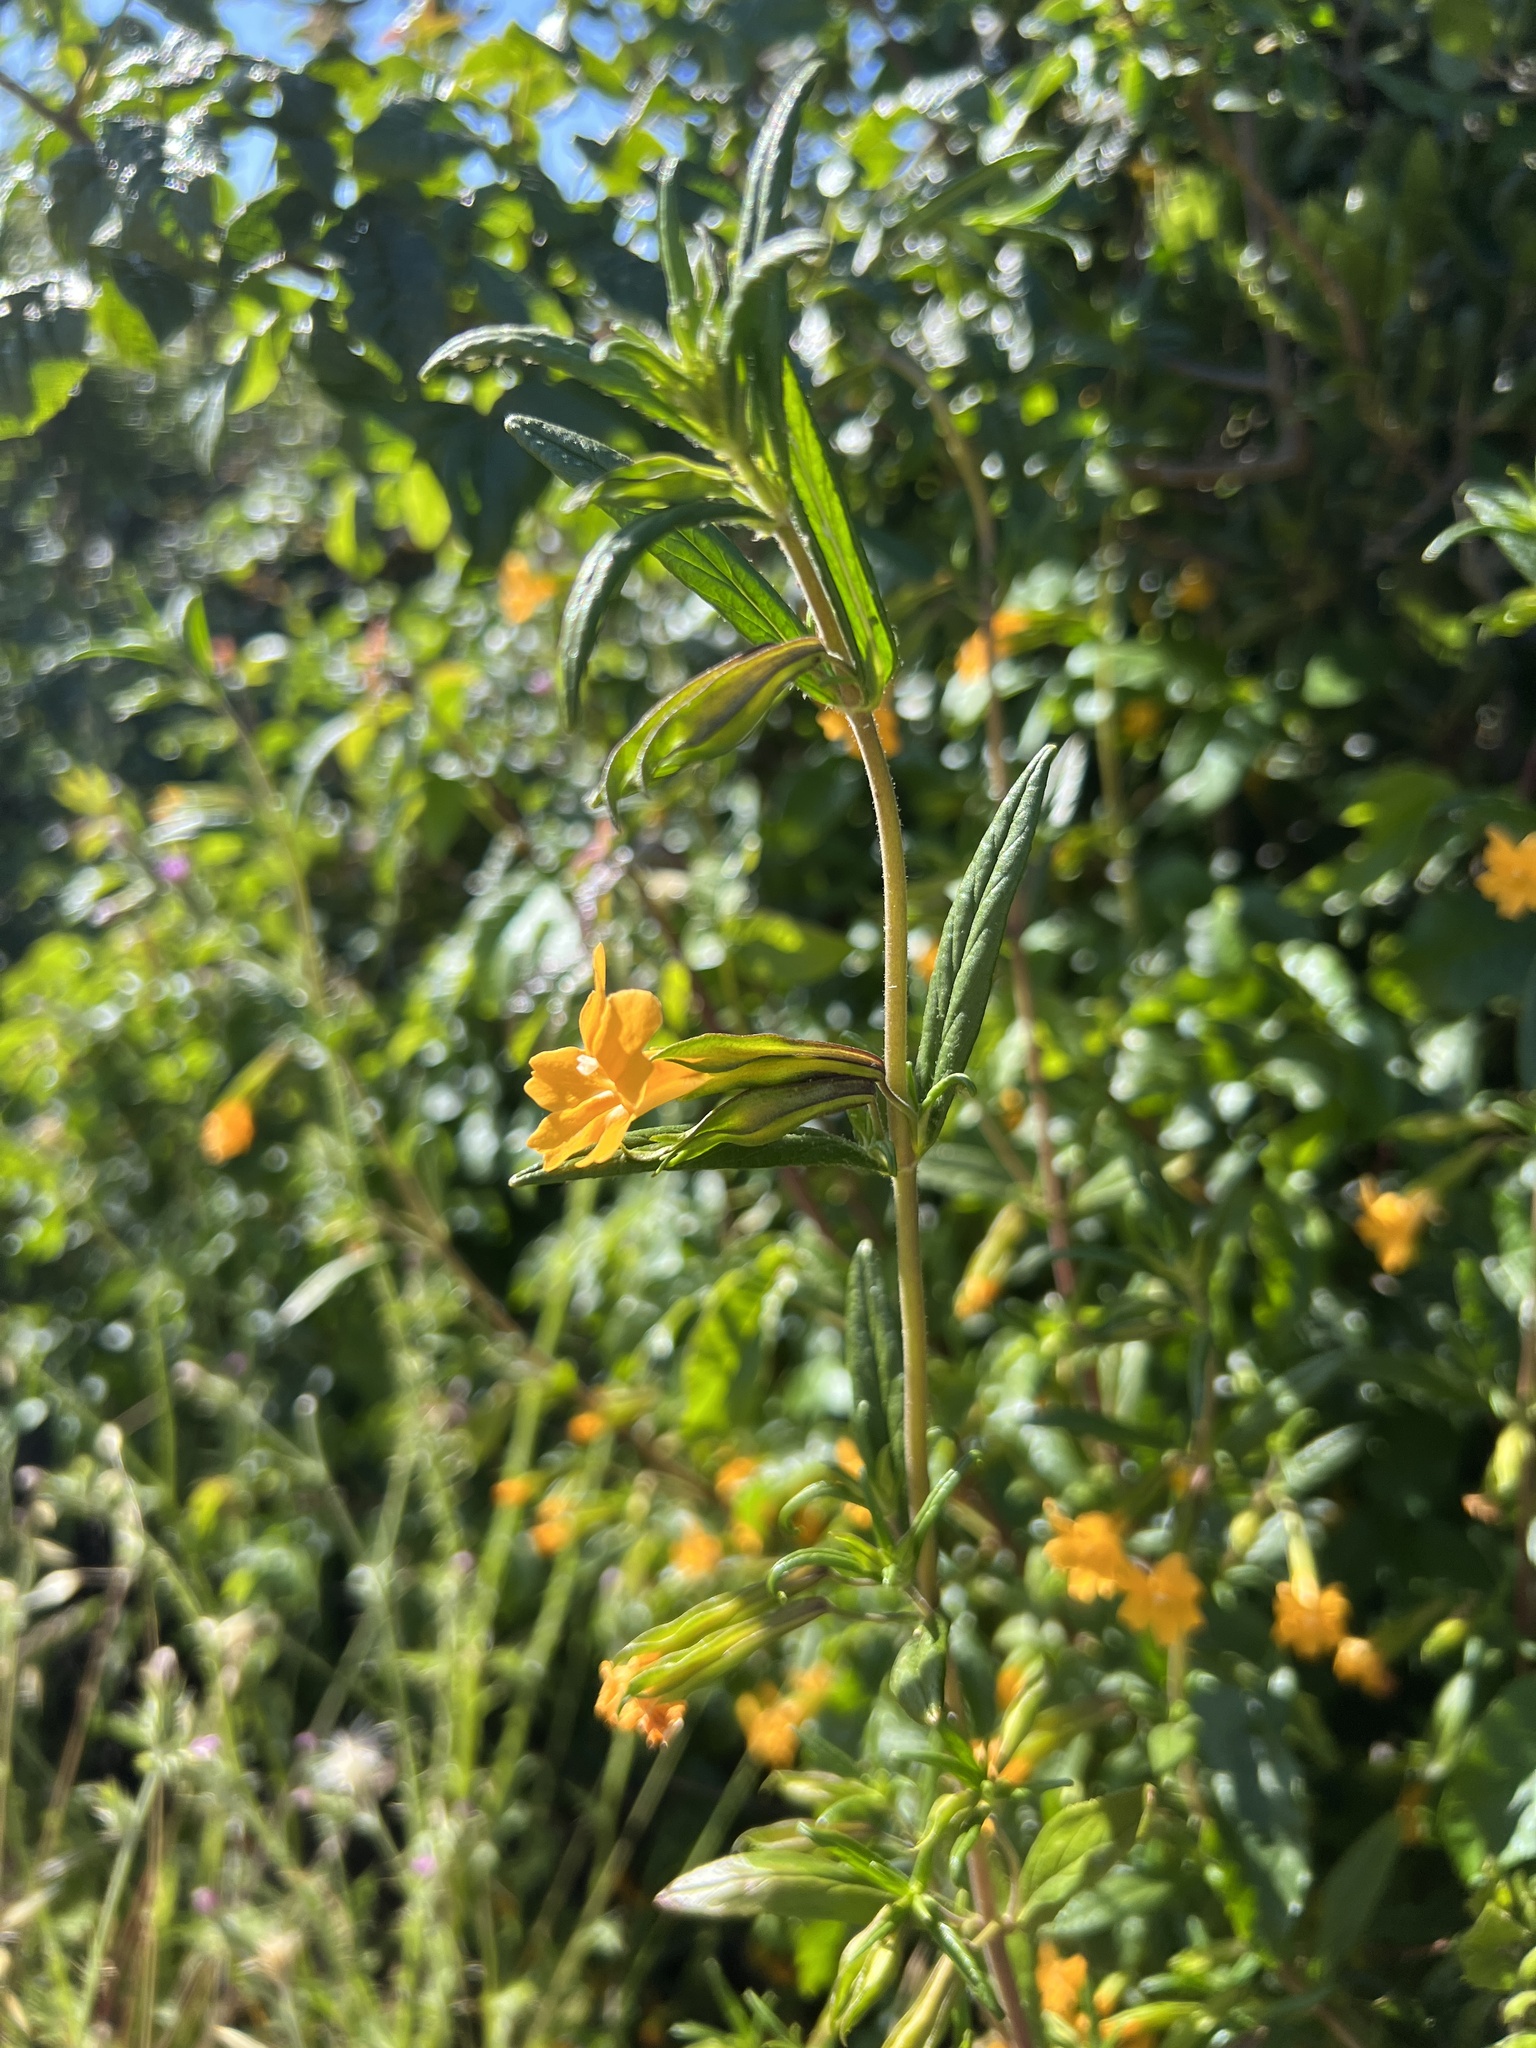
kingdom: Plantae
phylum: Tracheophyta
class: Magnoliopsida
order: Lamiales
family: Phrymaceae
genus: Diplacus
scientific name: Diplacus aurantiacus
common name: Bush monkey-flower
